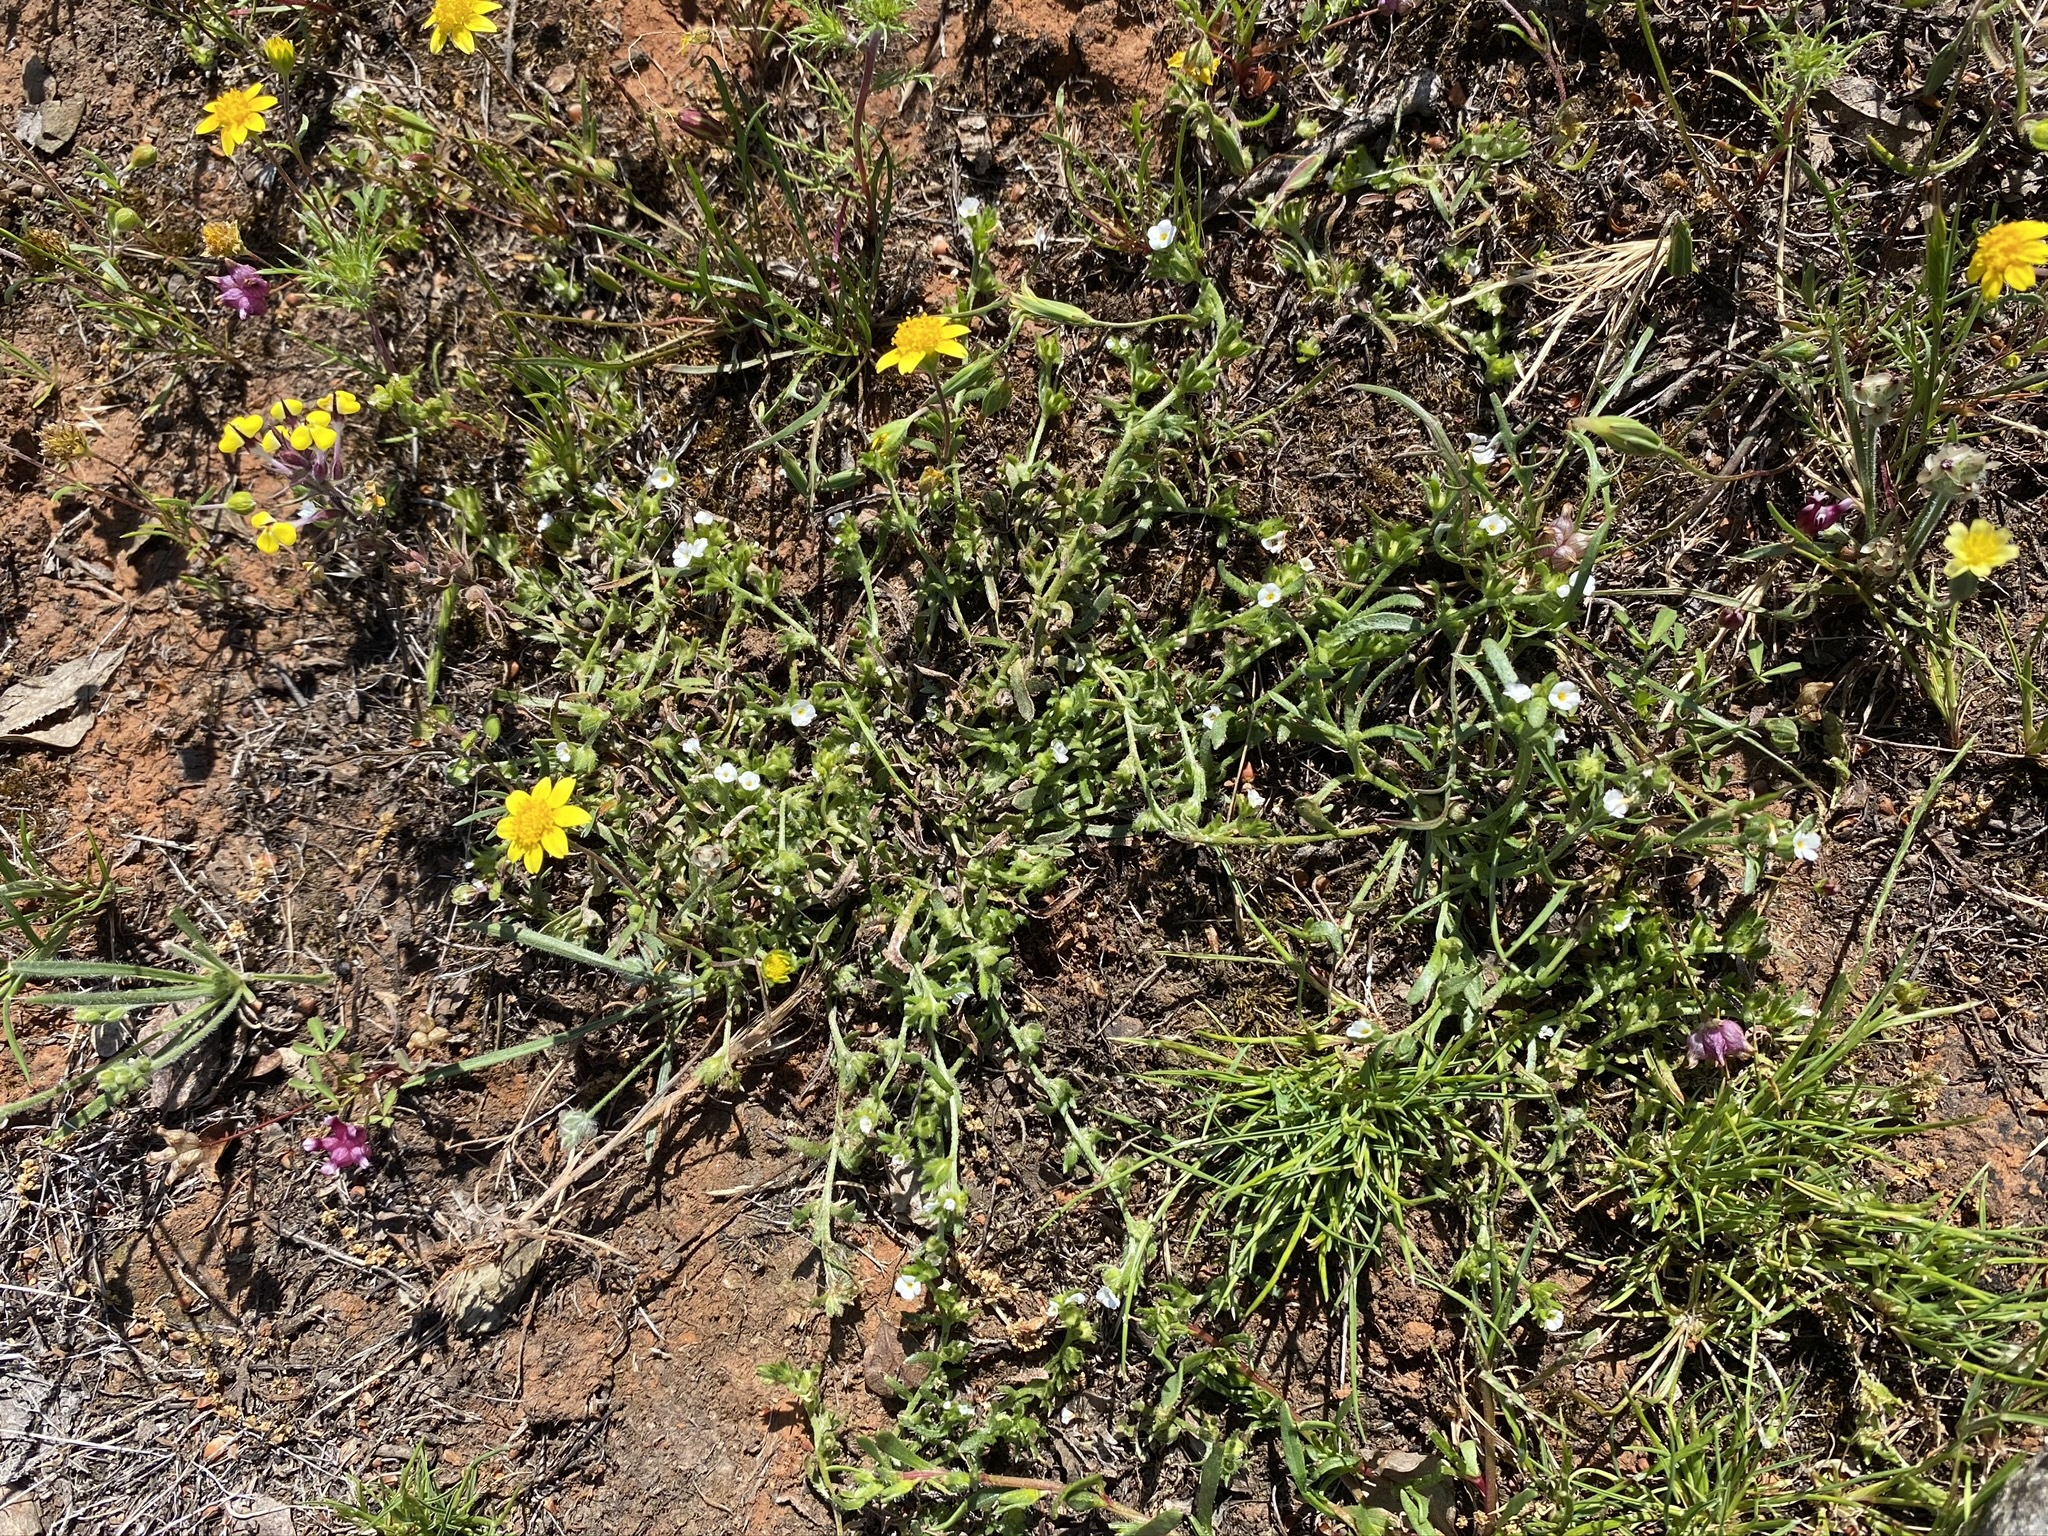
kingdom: Plantae
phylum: Tracheophyta
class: Magnoliopsida
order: Boraginales
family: Boraginaceae
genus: Plagiobothrys
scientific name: Plagiobothrys scriptus
